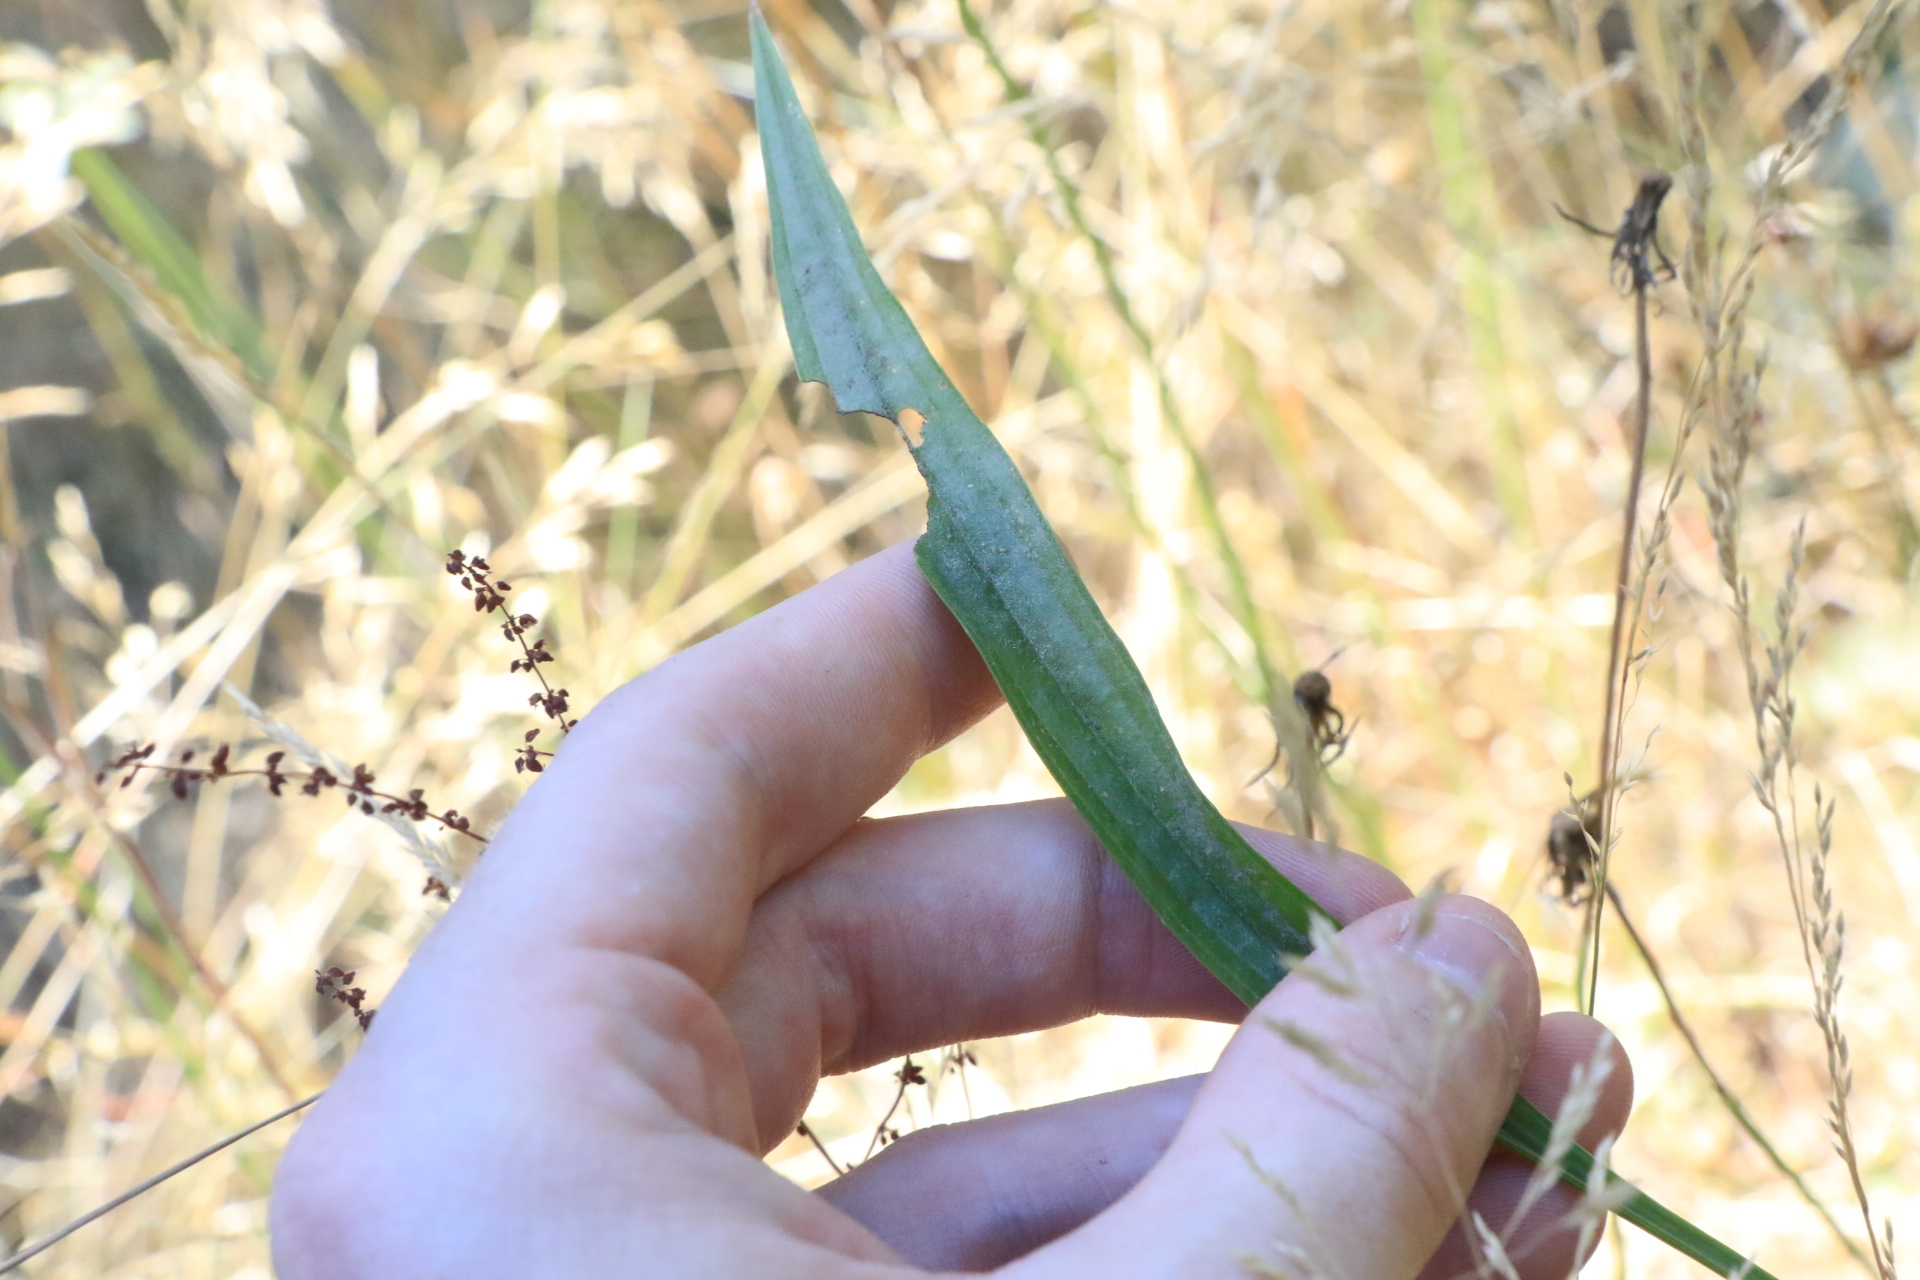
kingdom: Plantae
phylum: Tracheophyta
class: Magnoliopsida
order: Lamiales
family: Plantaginaceae
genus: Plantago
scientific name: Plantago lanceolata
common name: Ribwort plantain
